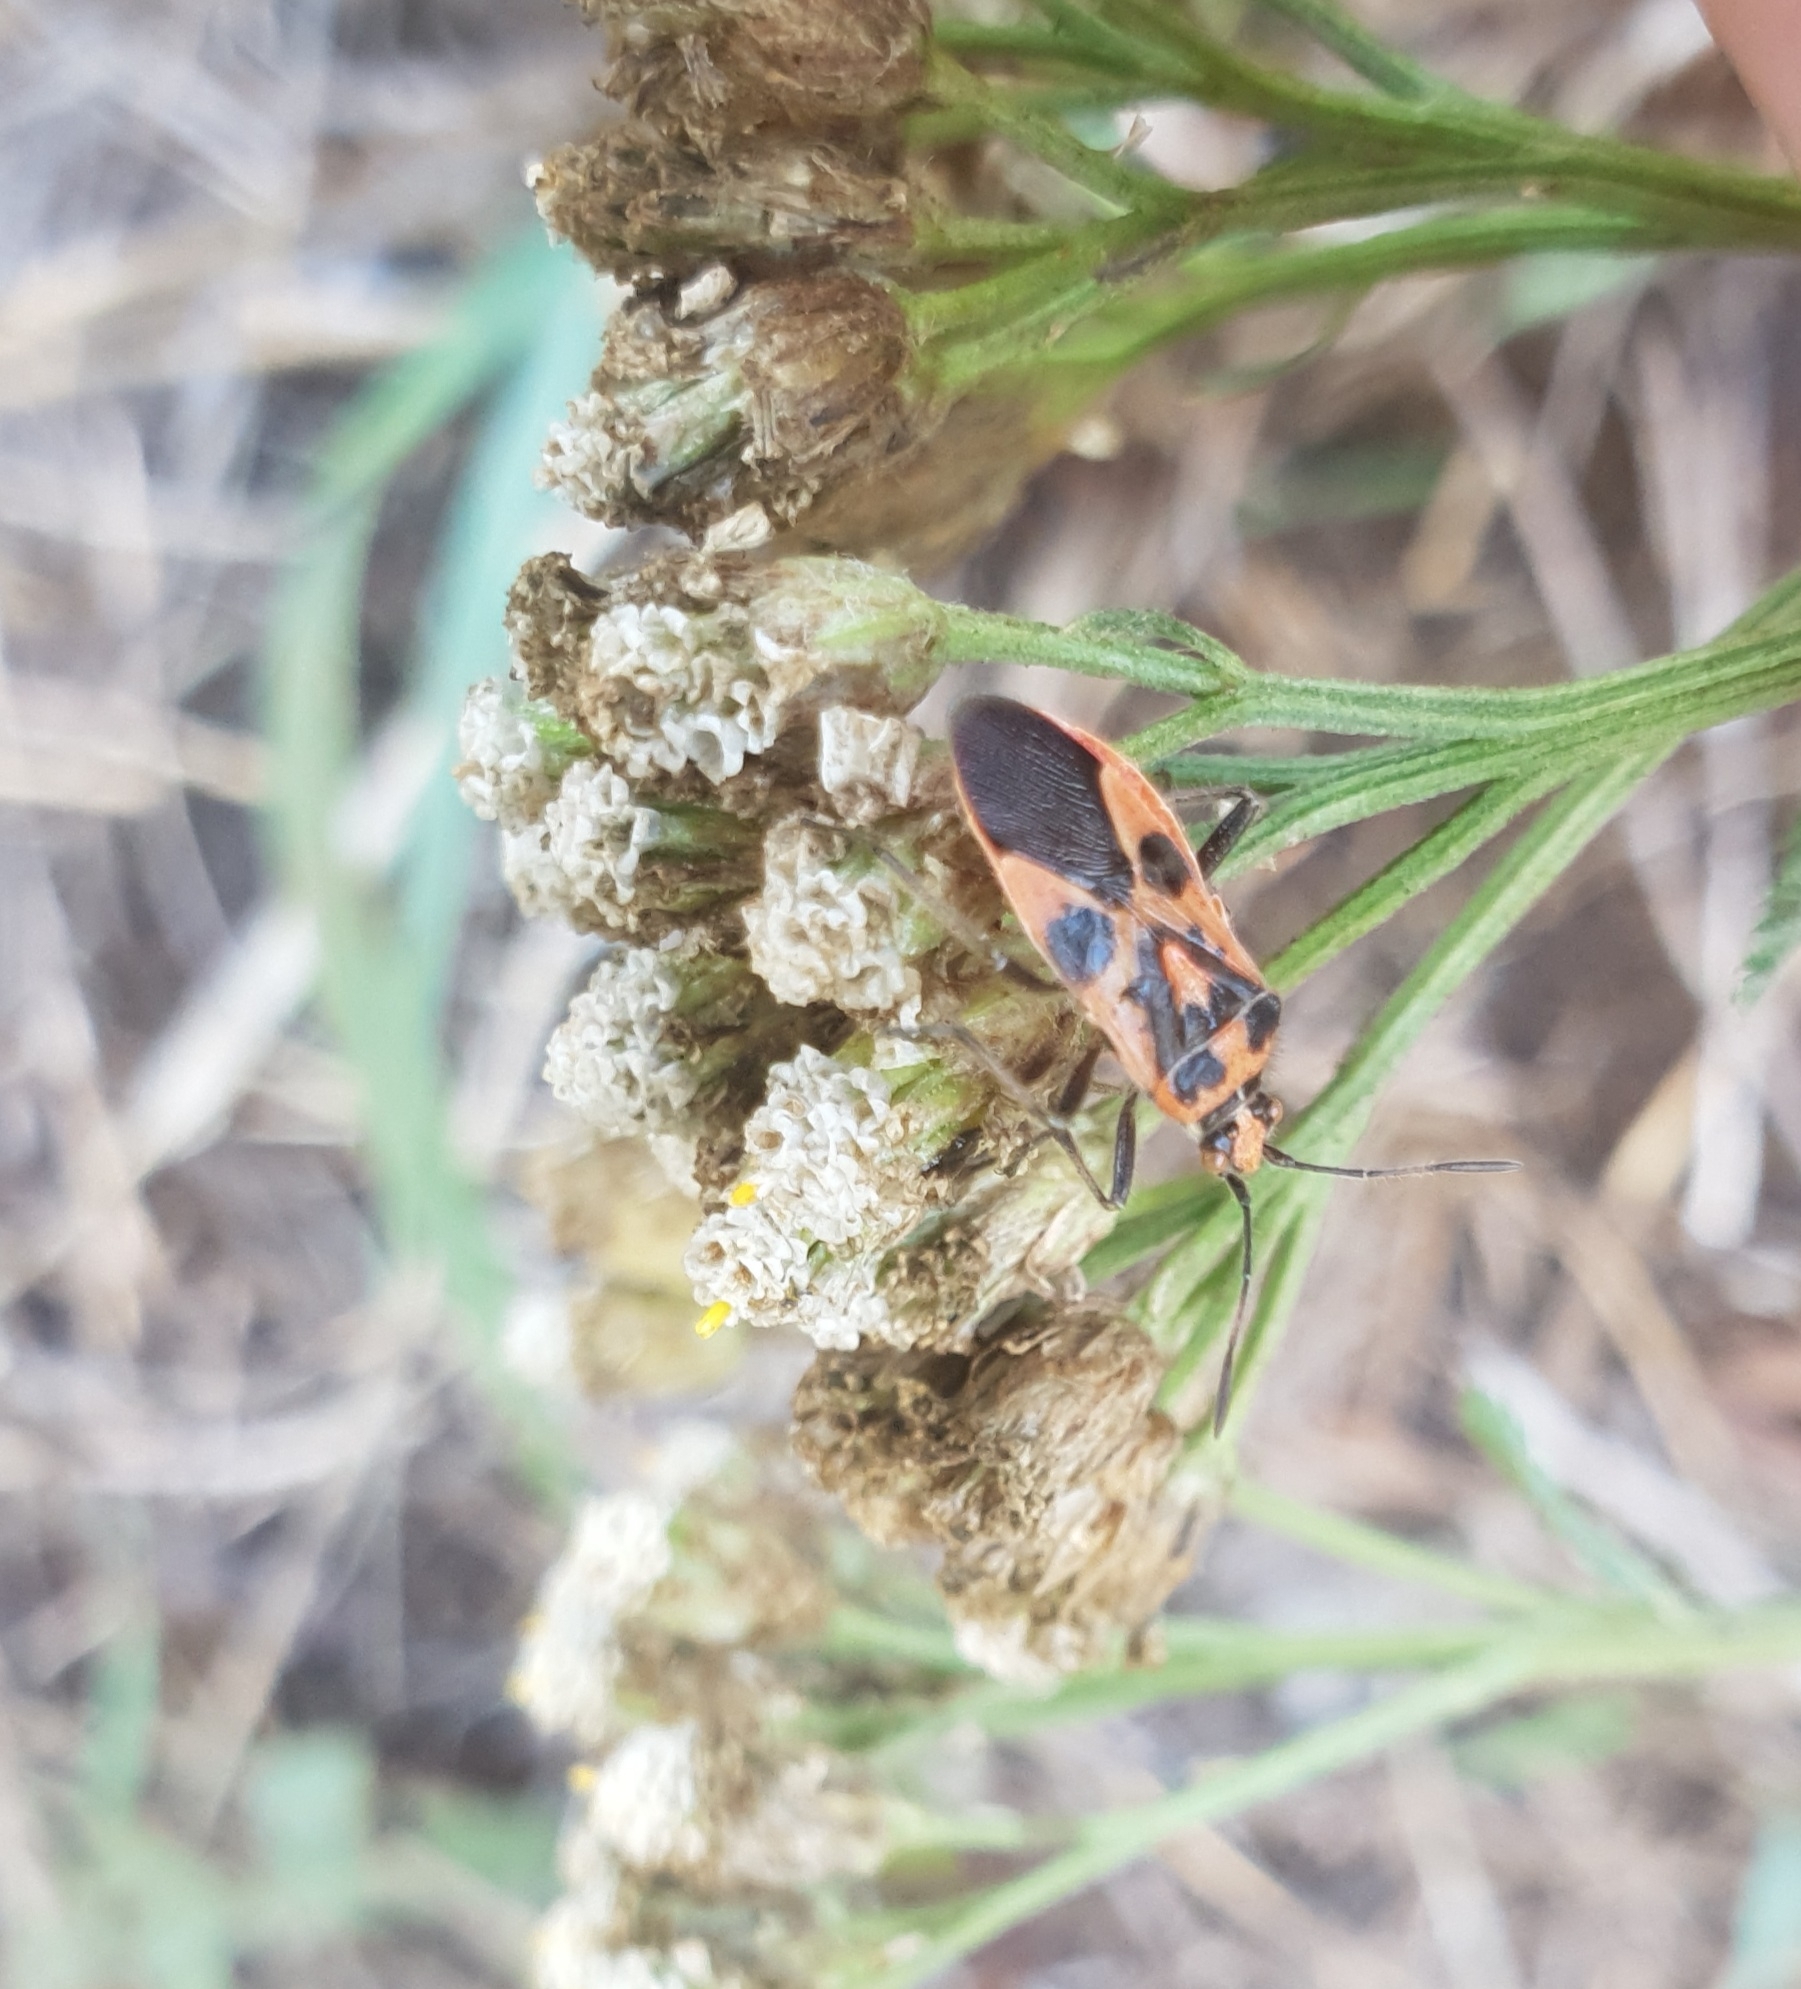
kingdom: Animalia
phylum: Arthropoda
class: Insecta
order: Hemiptera
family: Rhopalidae
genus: Corizus
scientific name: Corizus hyoscyami
